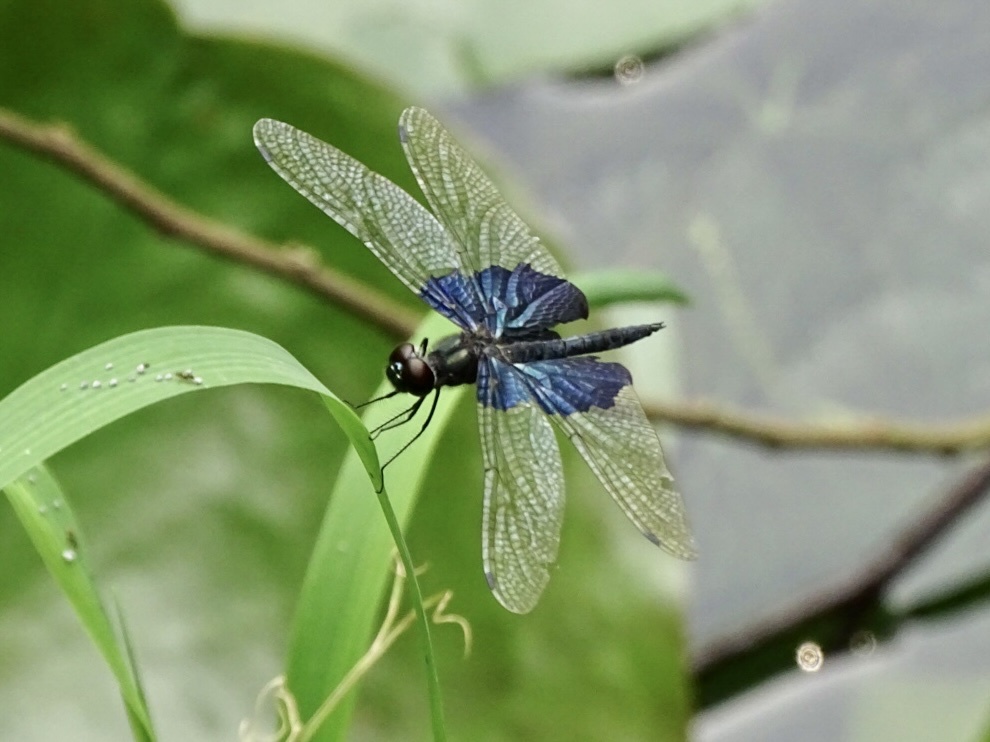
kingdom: Animalia
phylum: Arthropoda
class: Insecta
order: Odonata
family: Libellulidae
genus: Rhyothemis
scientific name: Rhyothemis triangularis
